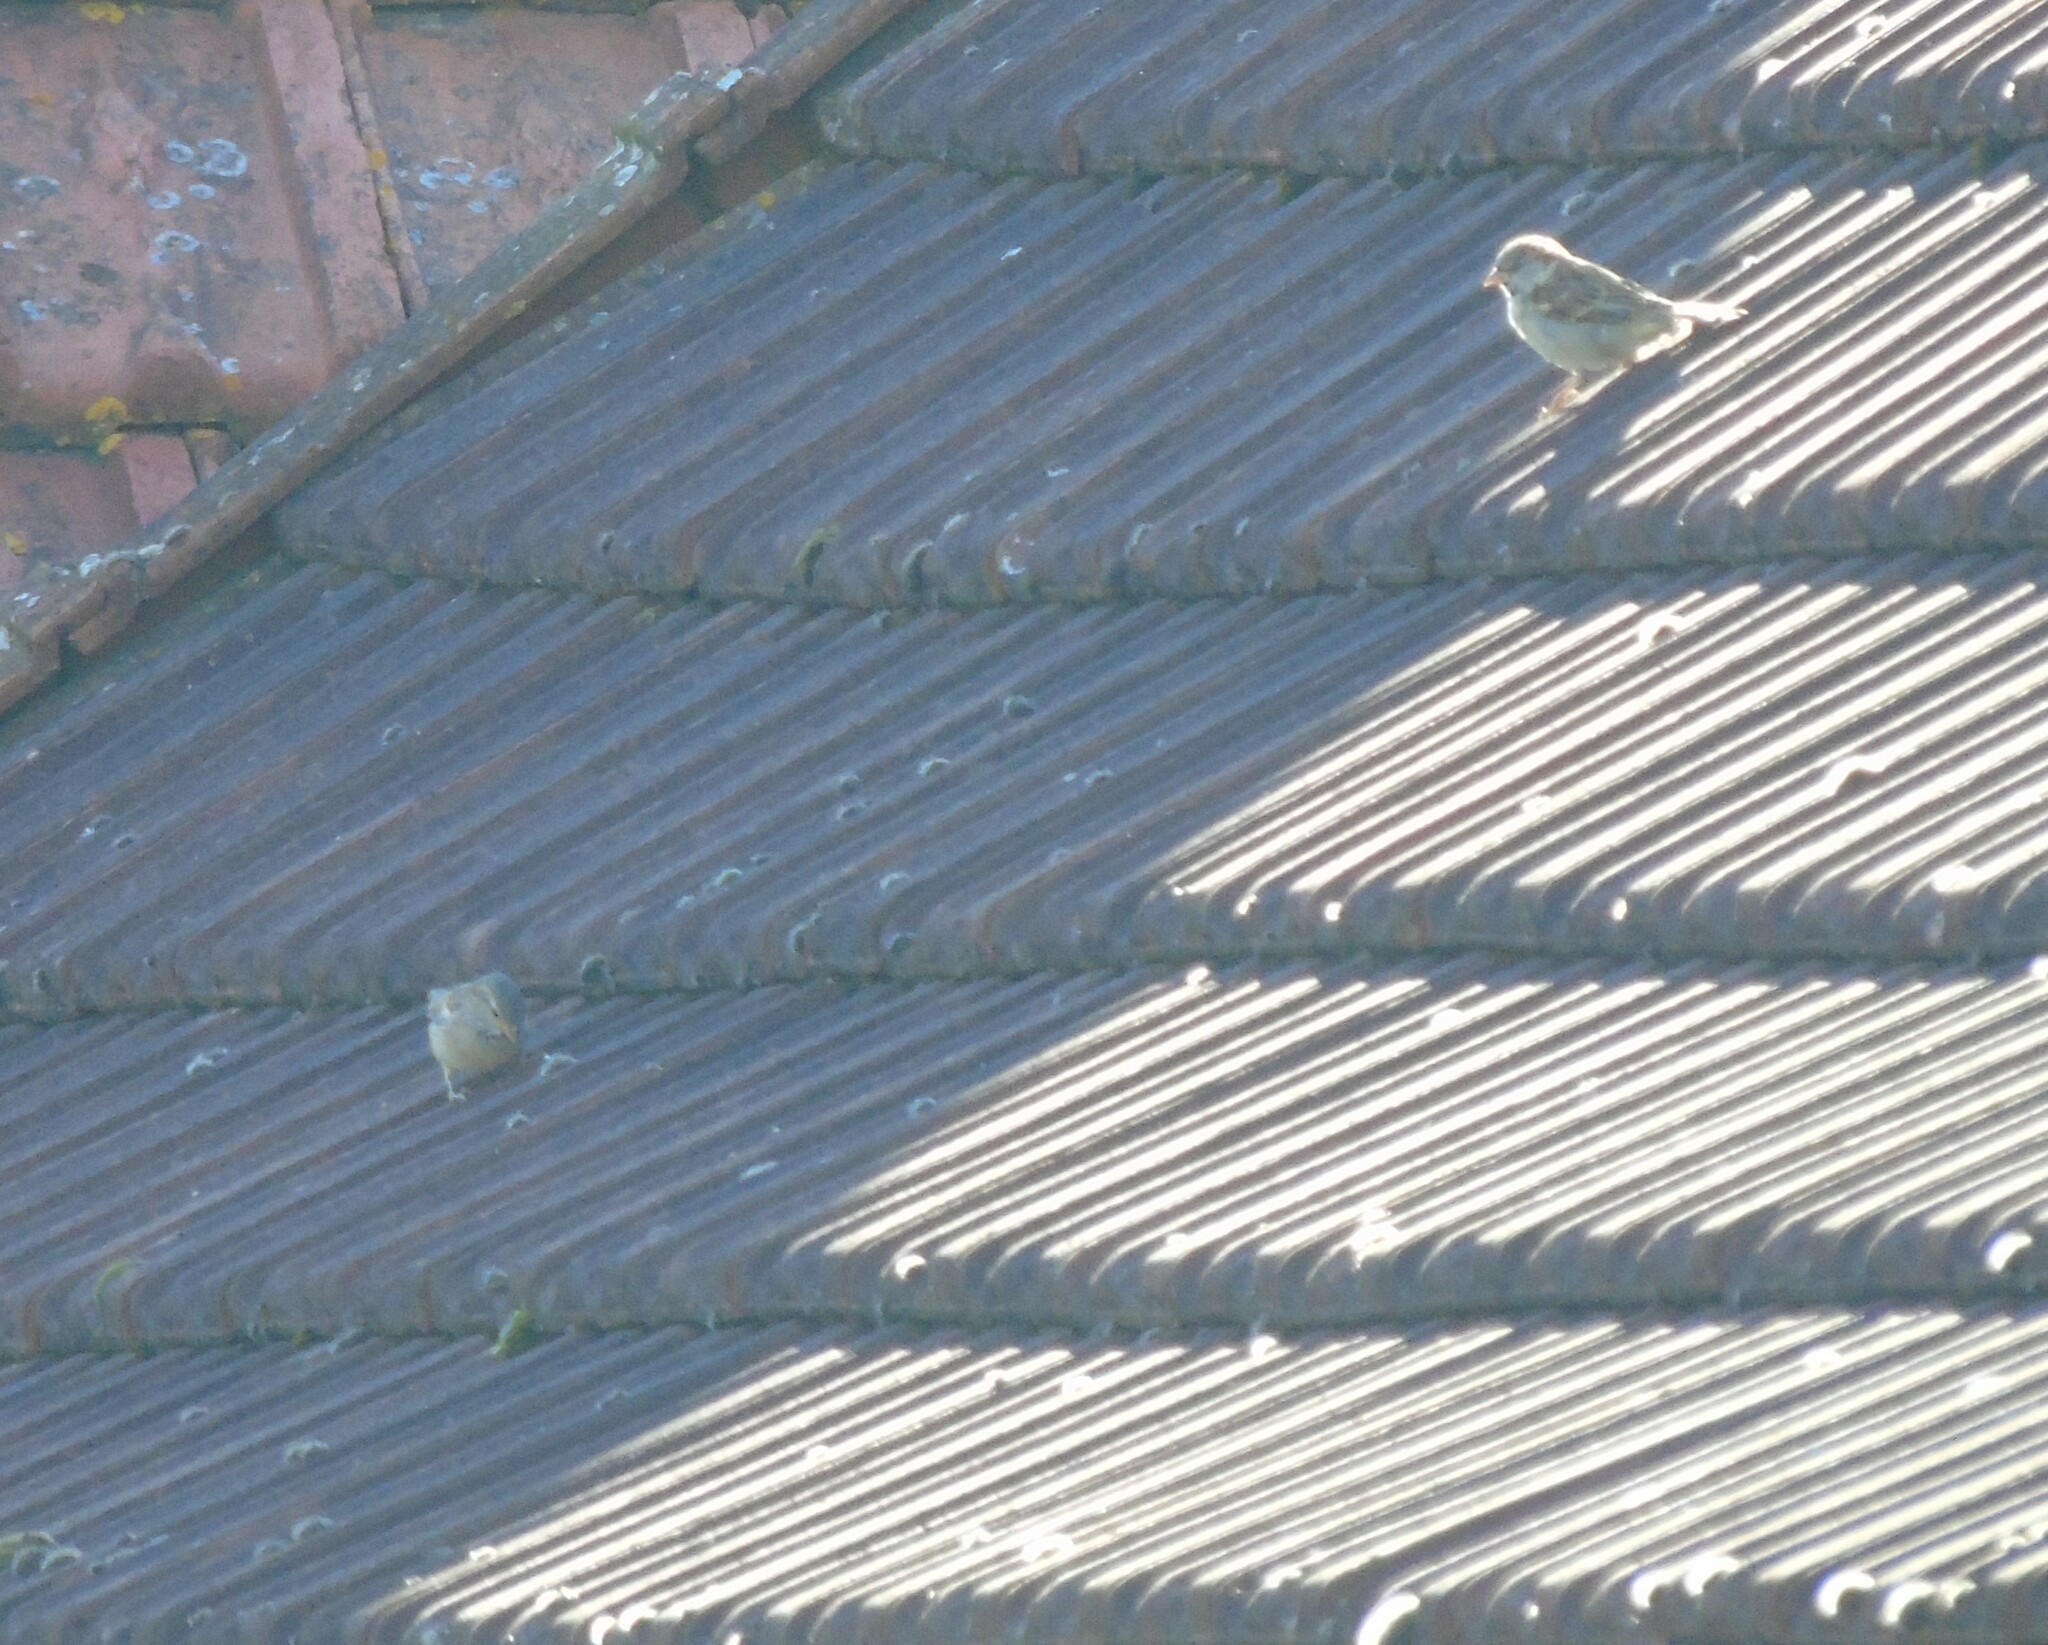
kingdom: Animalia
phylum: Chordata
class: Aves
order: Passeriformes
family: Passeridae
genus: Passer
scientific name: Passer domesticus
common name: House sparrow
